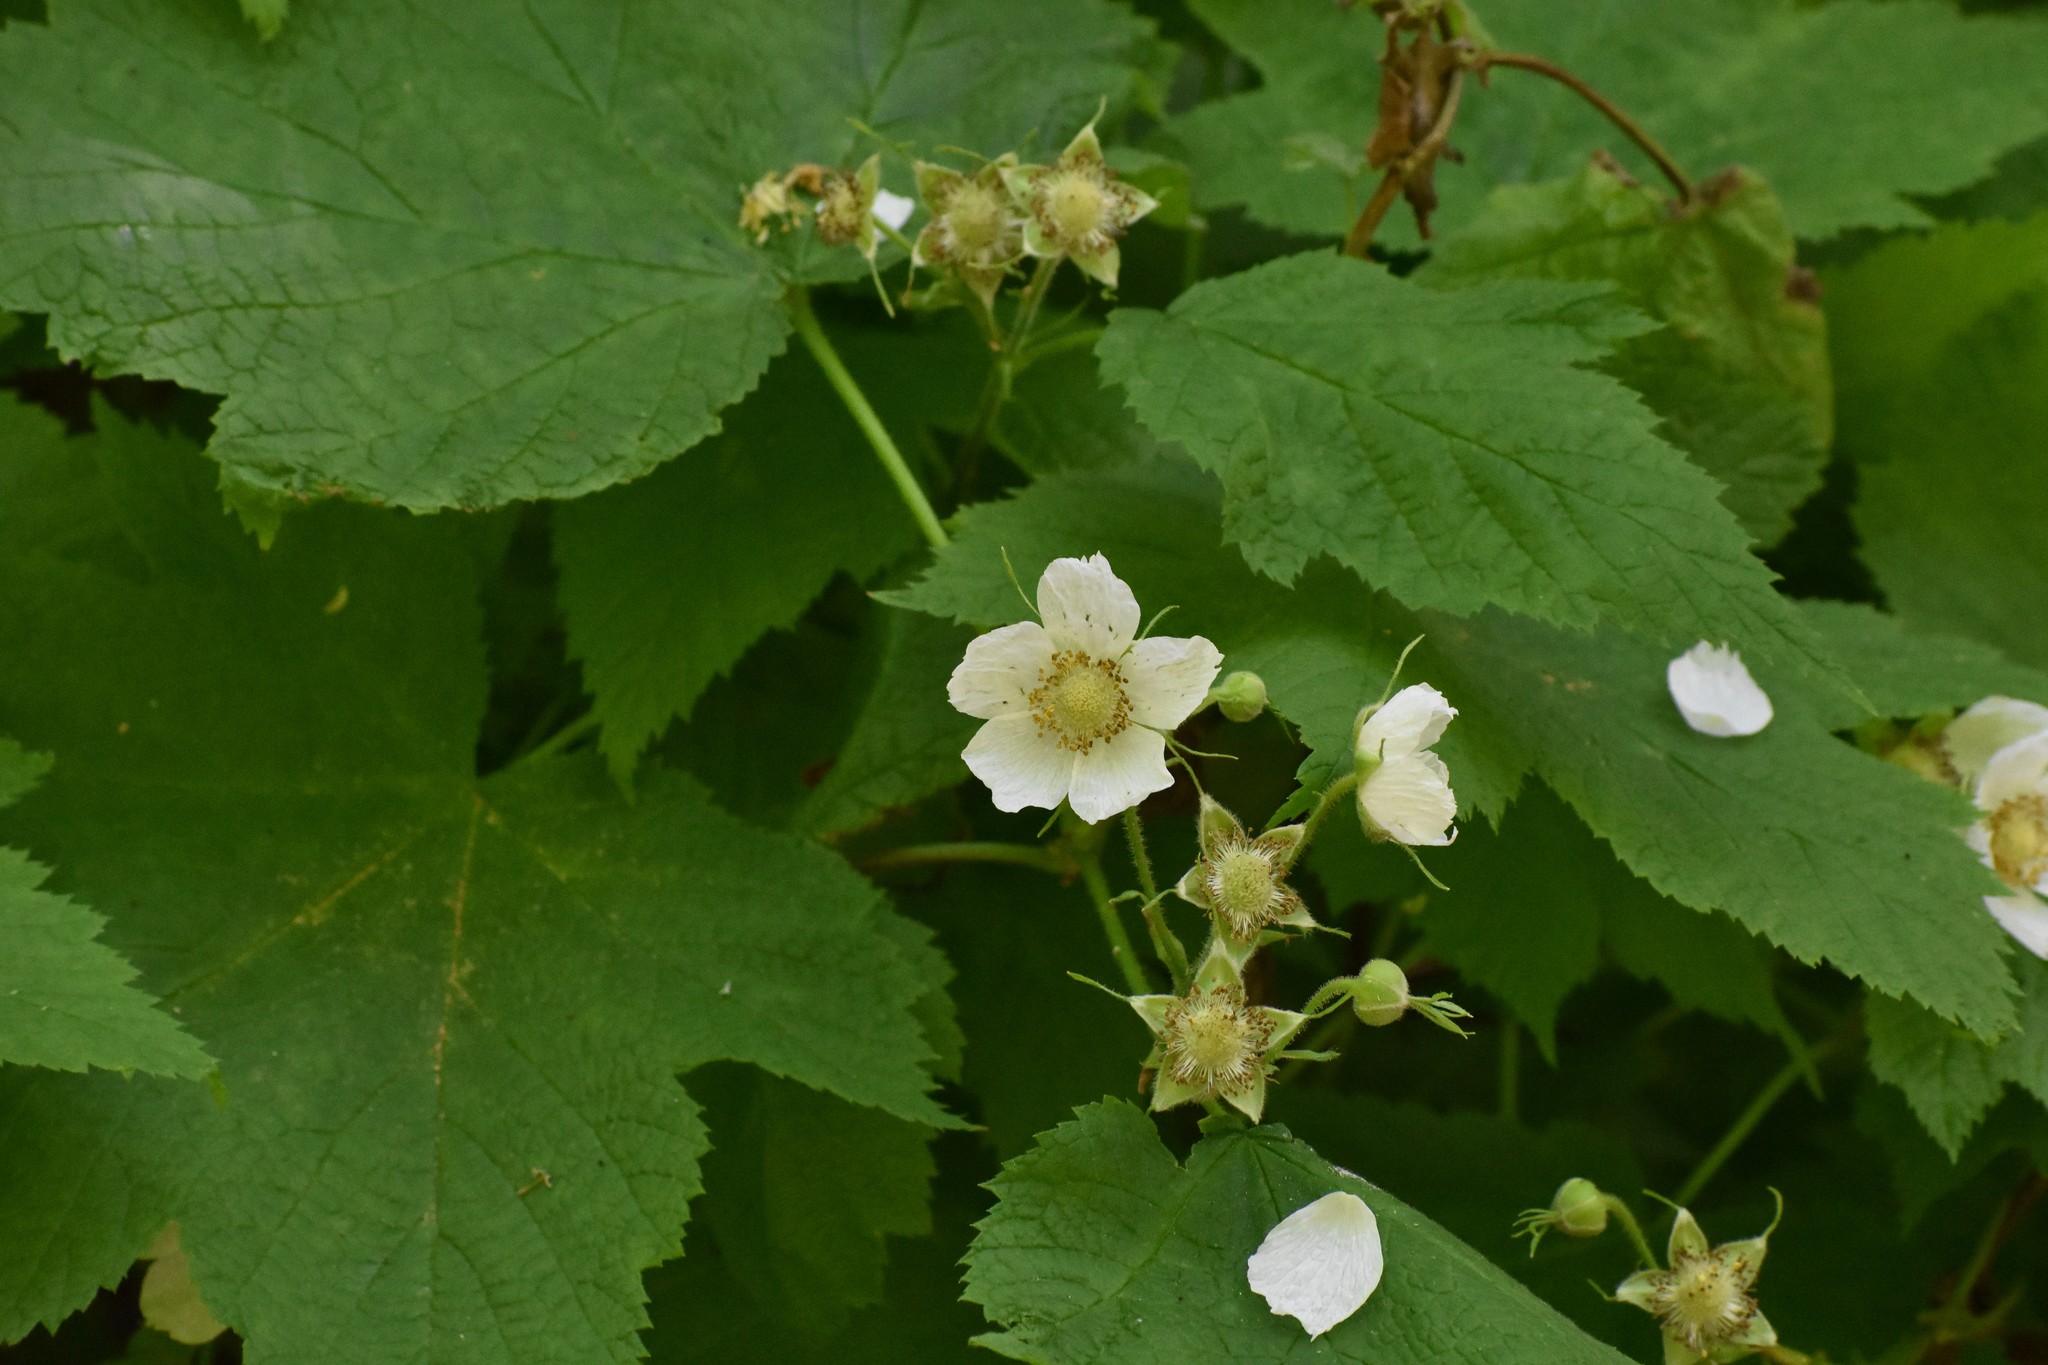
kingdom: Plantae
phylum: Tracheophyta
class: Magnoliopsida
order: Rosales
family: Rosaceae
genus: Rubus
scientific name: Rubus parviflorus
